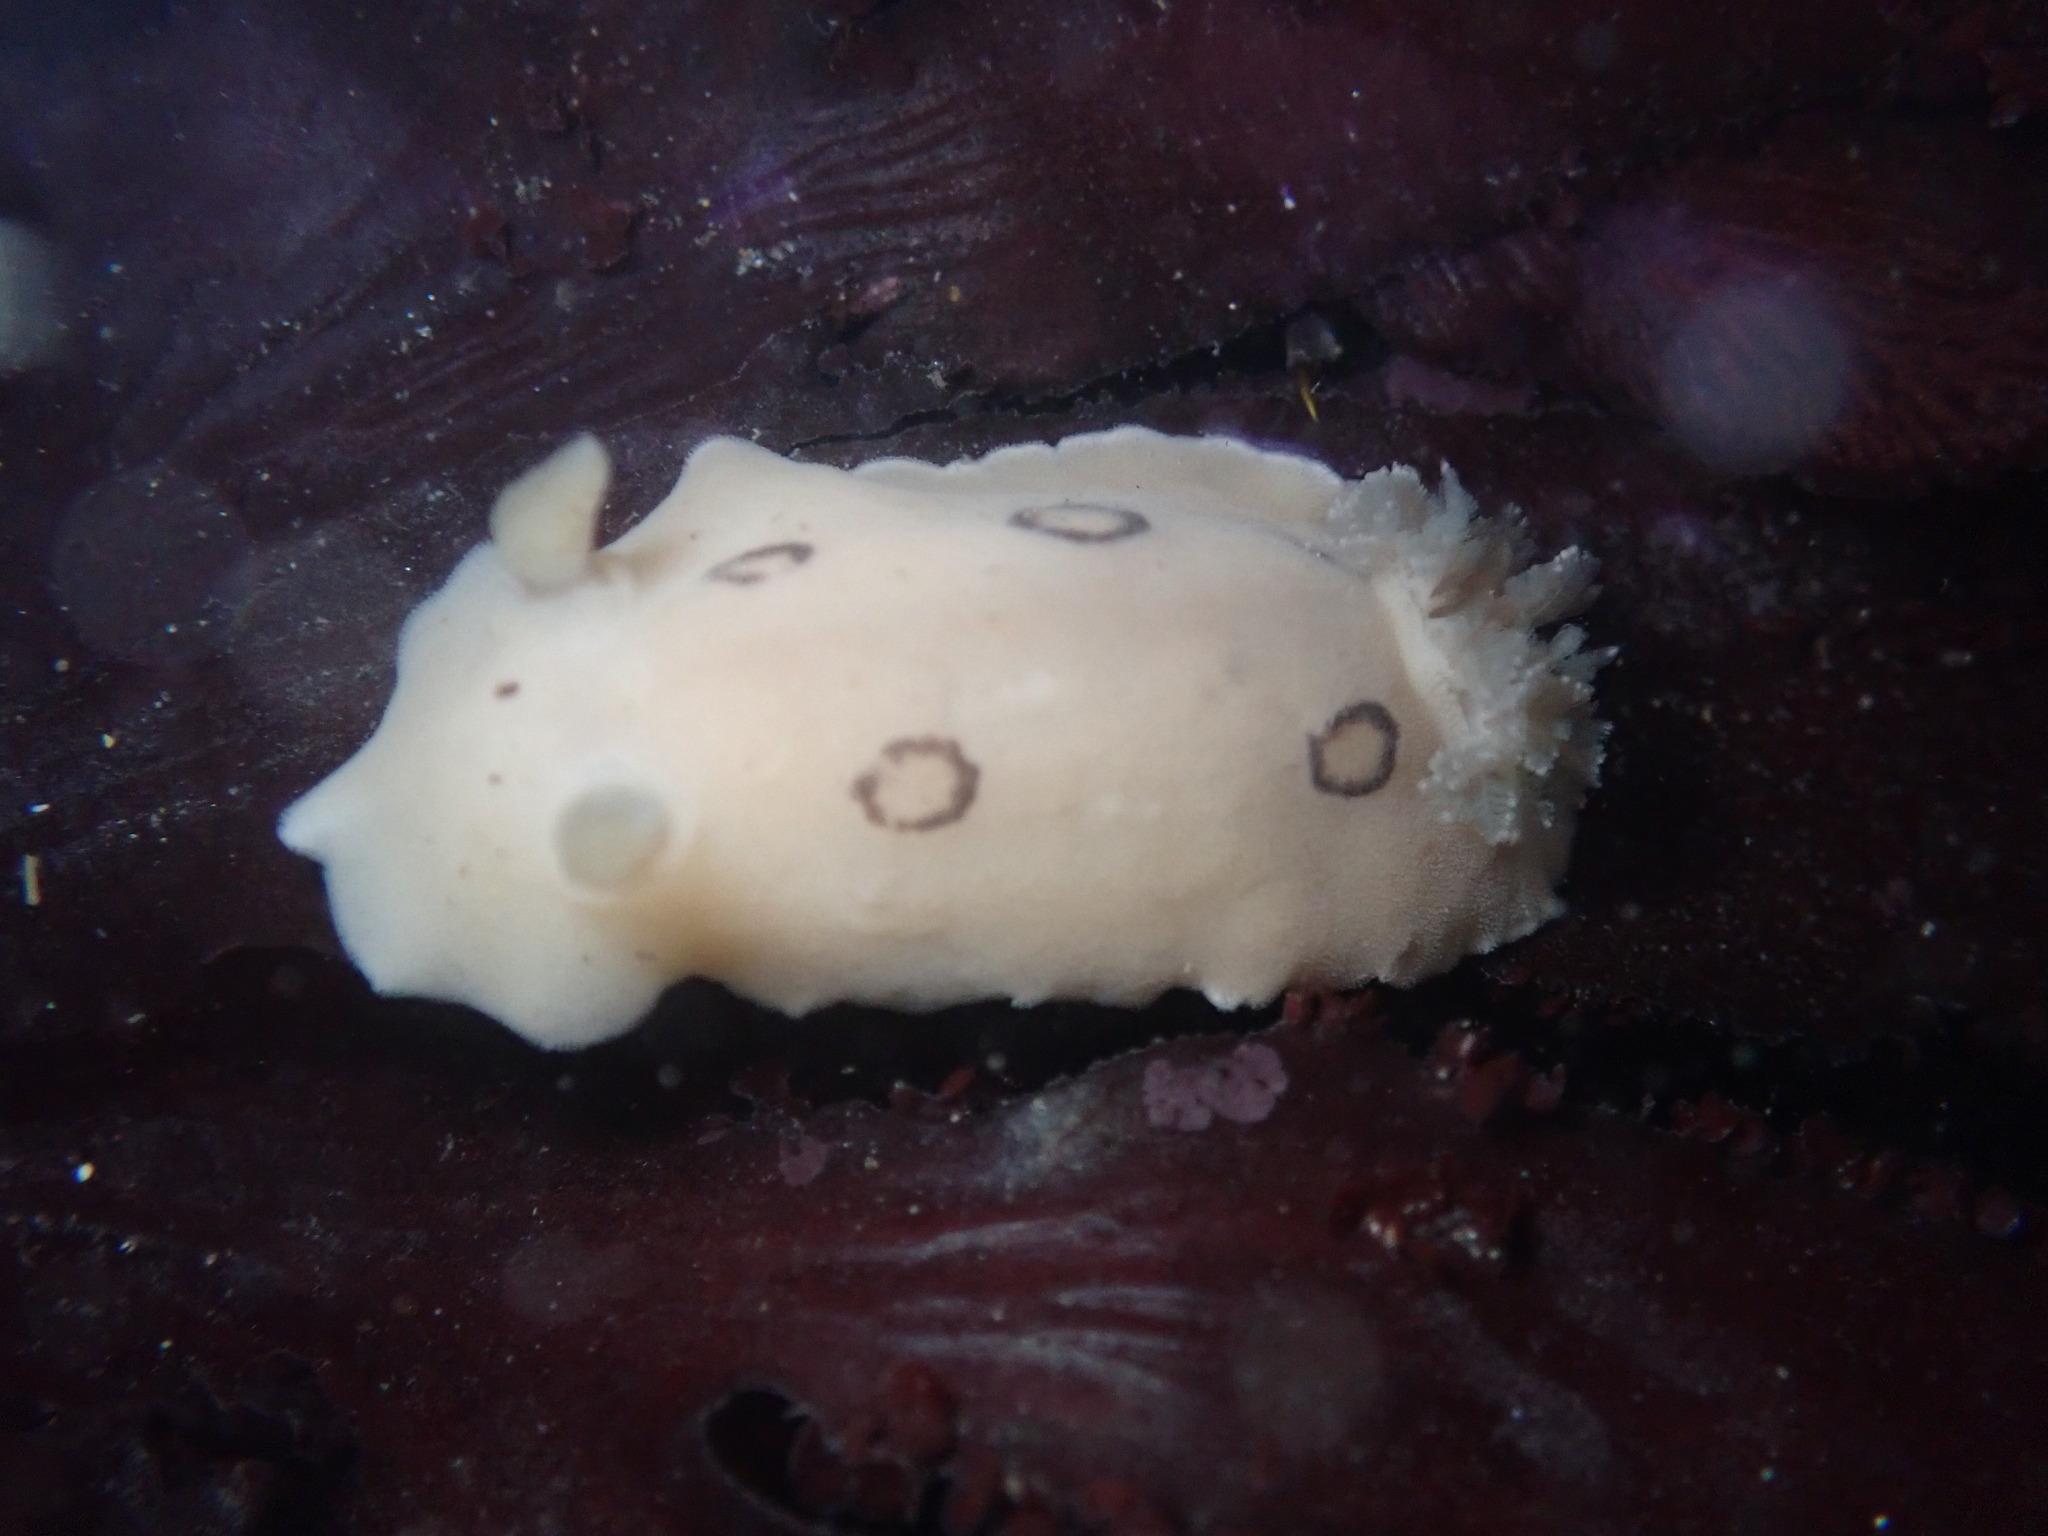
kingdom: Animalia
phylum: Mollusca
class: Gastropoda
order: Nudibranchia
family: Discodorididae
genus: Diaulula
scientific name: Diaulula sandiegensis
